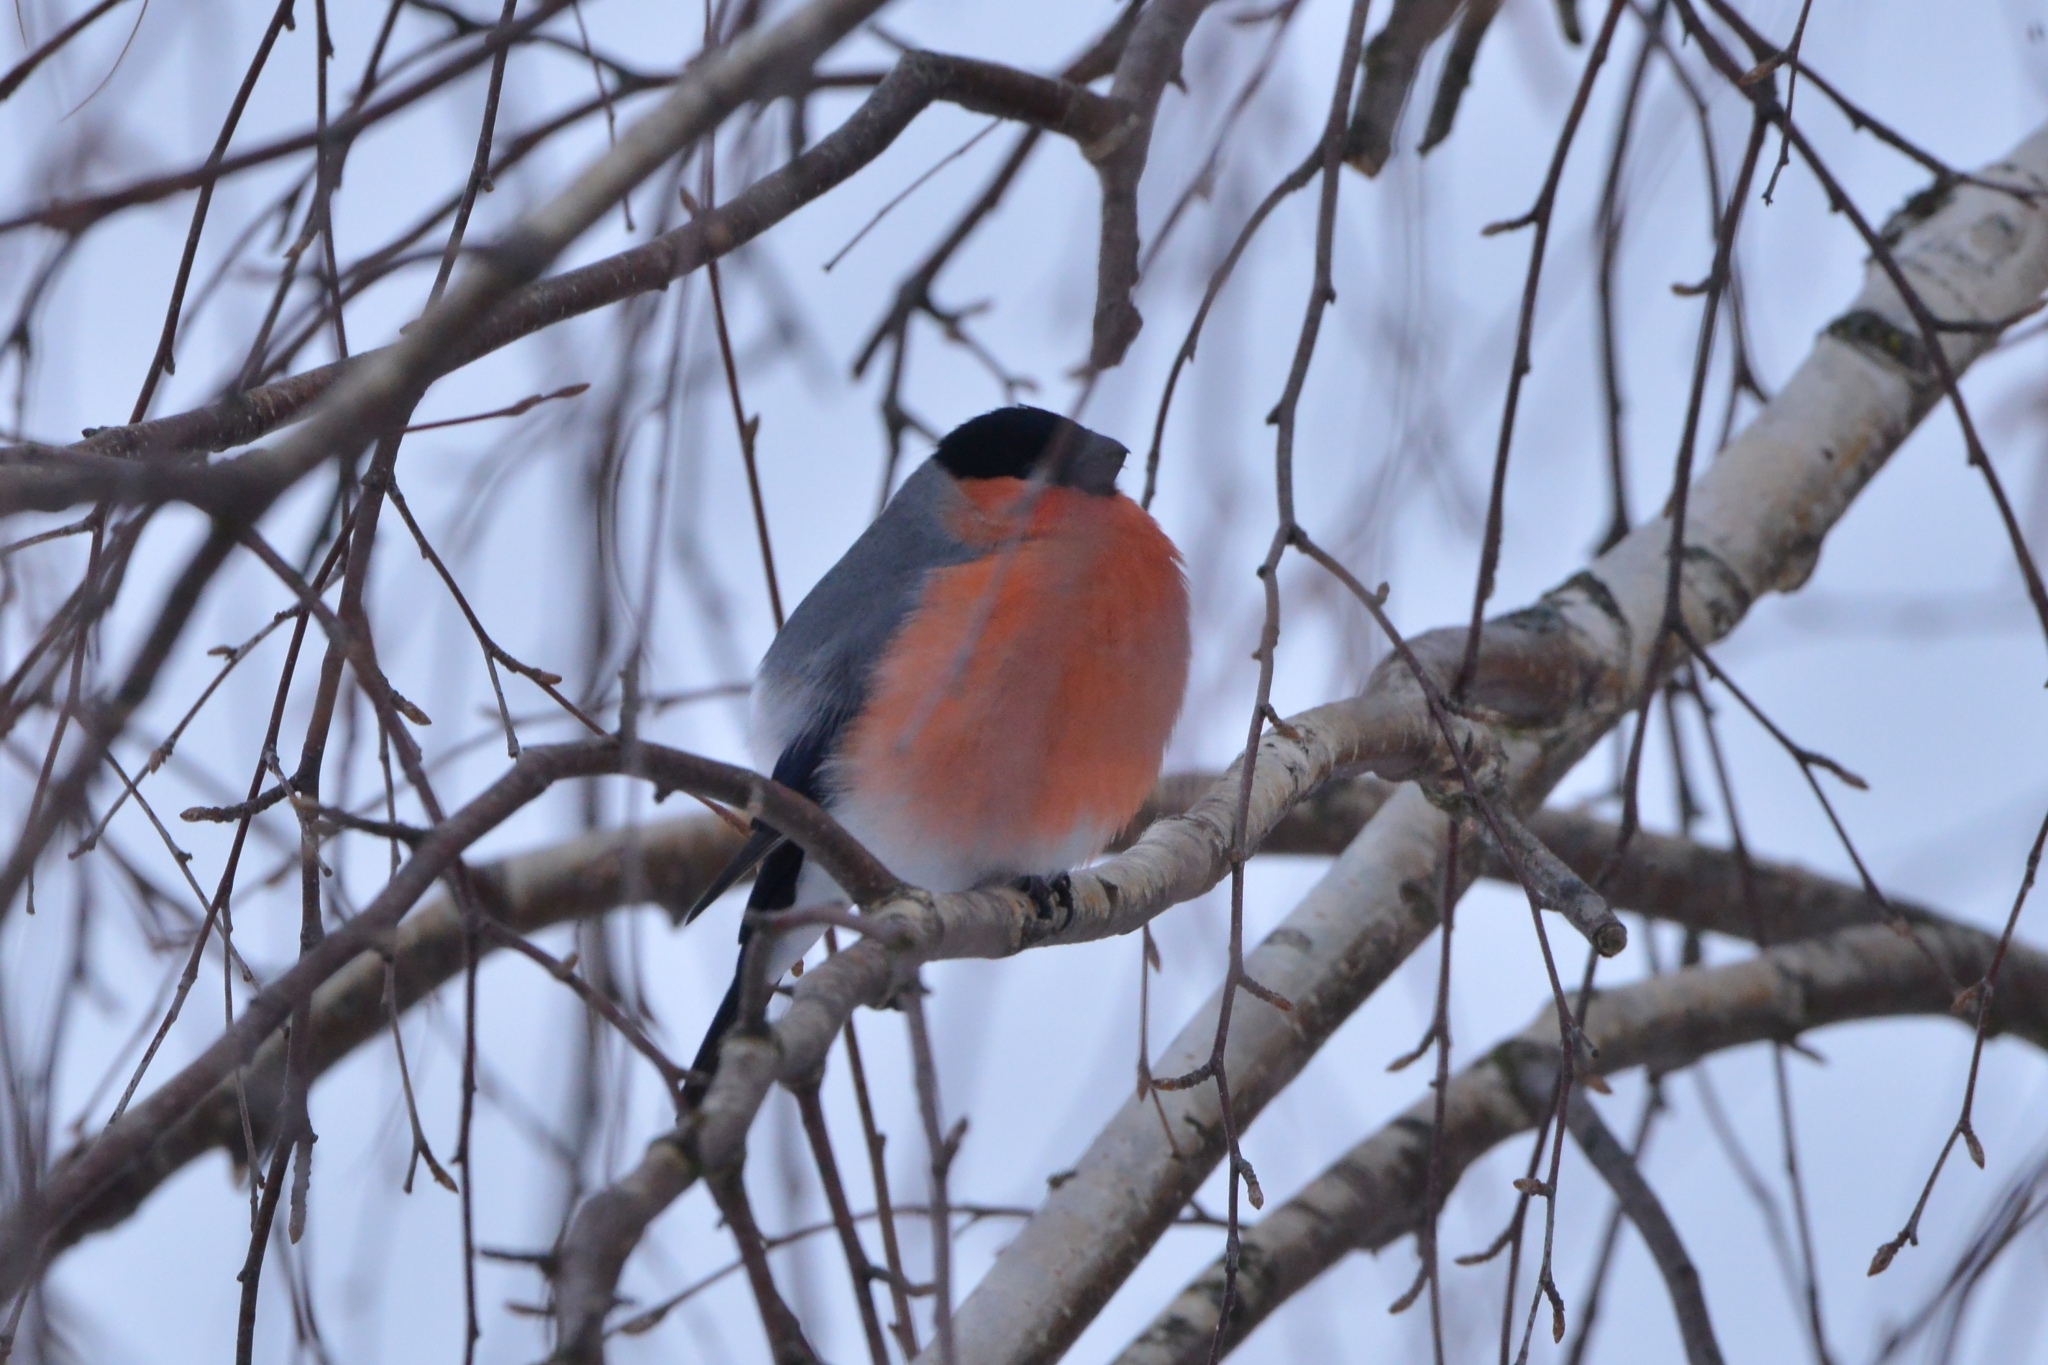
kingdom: Animalia
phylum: Chordata
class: Aves
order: Passeriformes
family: Fringillidae
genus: Pyrrhula
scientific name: Pyrrhula pyrrhula
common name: Eurasian bullfinch
